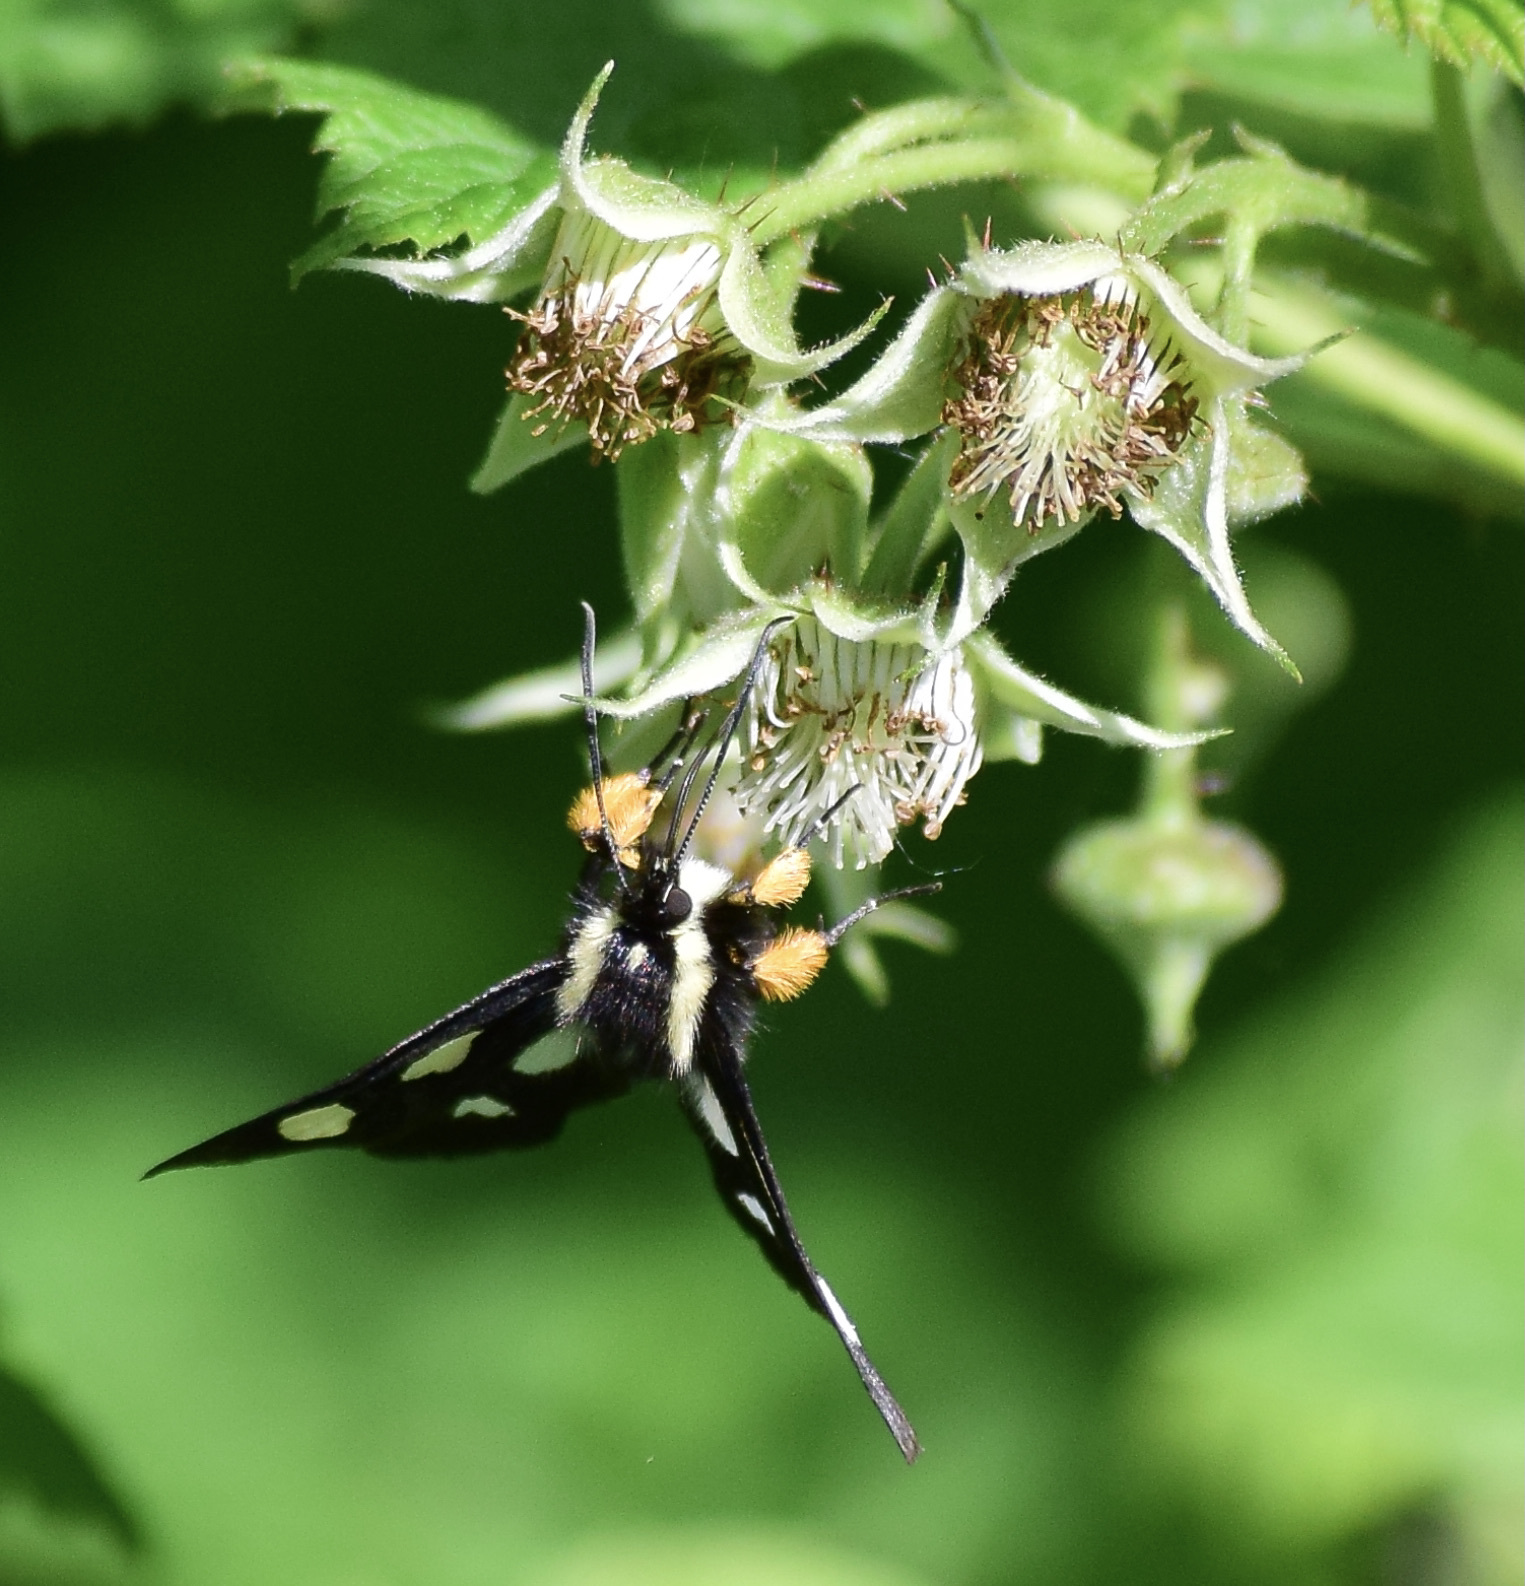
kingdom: Animalia
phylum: Arthropoda
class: Insecta
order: Lepidoptera
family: Noctuidae
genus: Alypia
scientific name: Alypia octomaculata
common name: Eight-spotted forester
